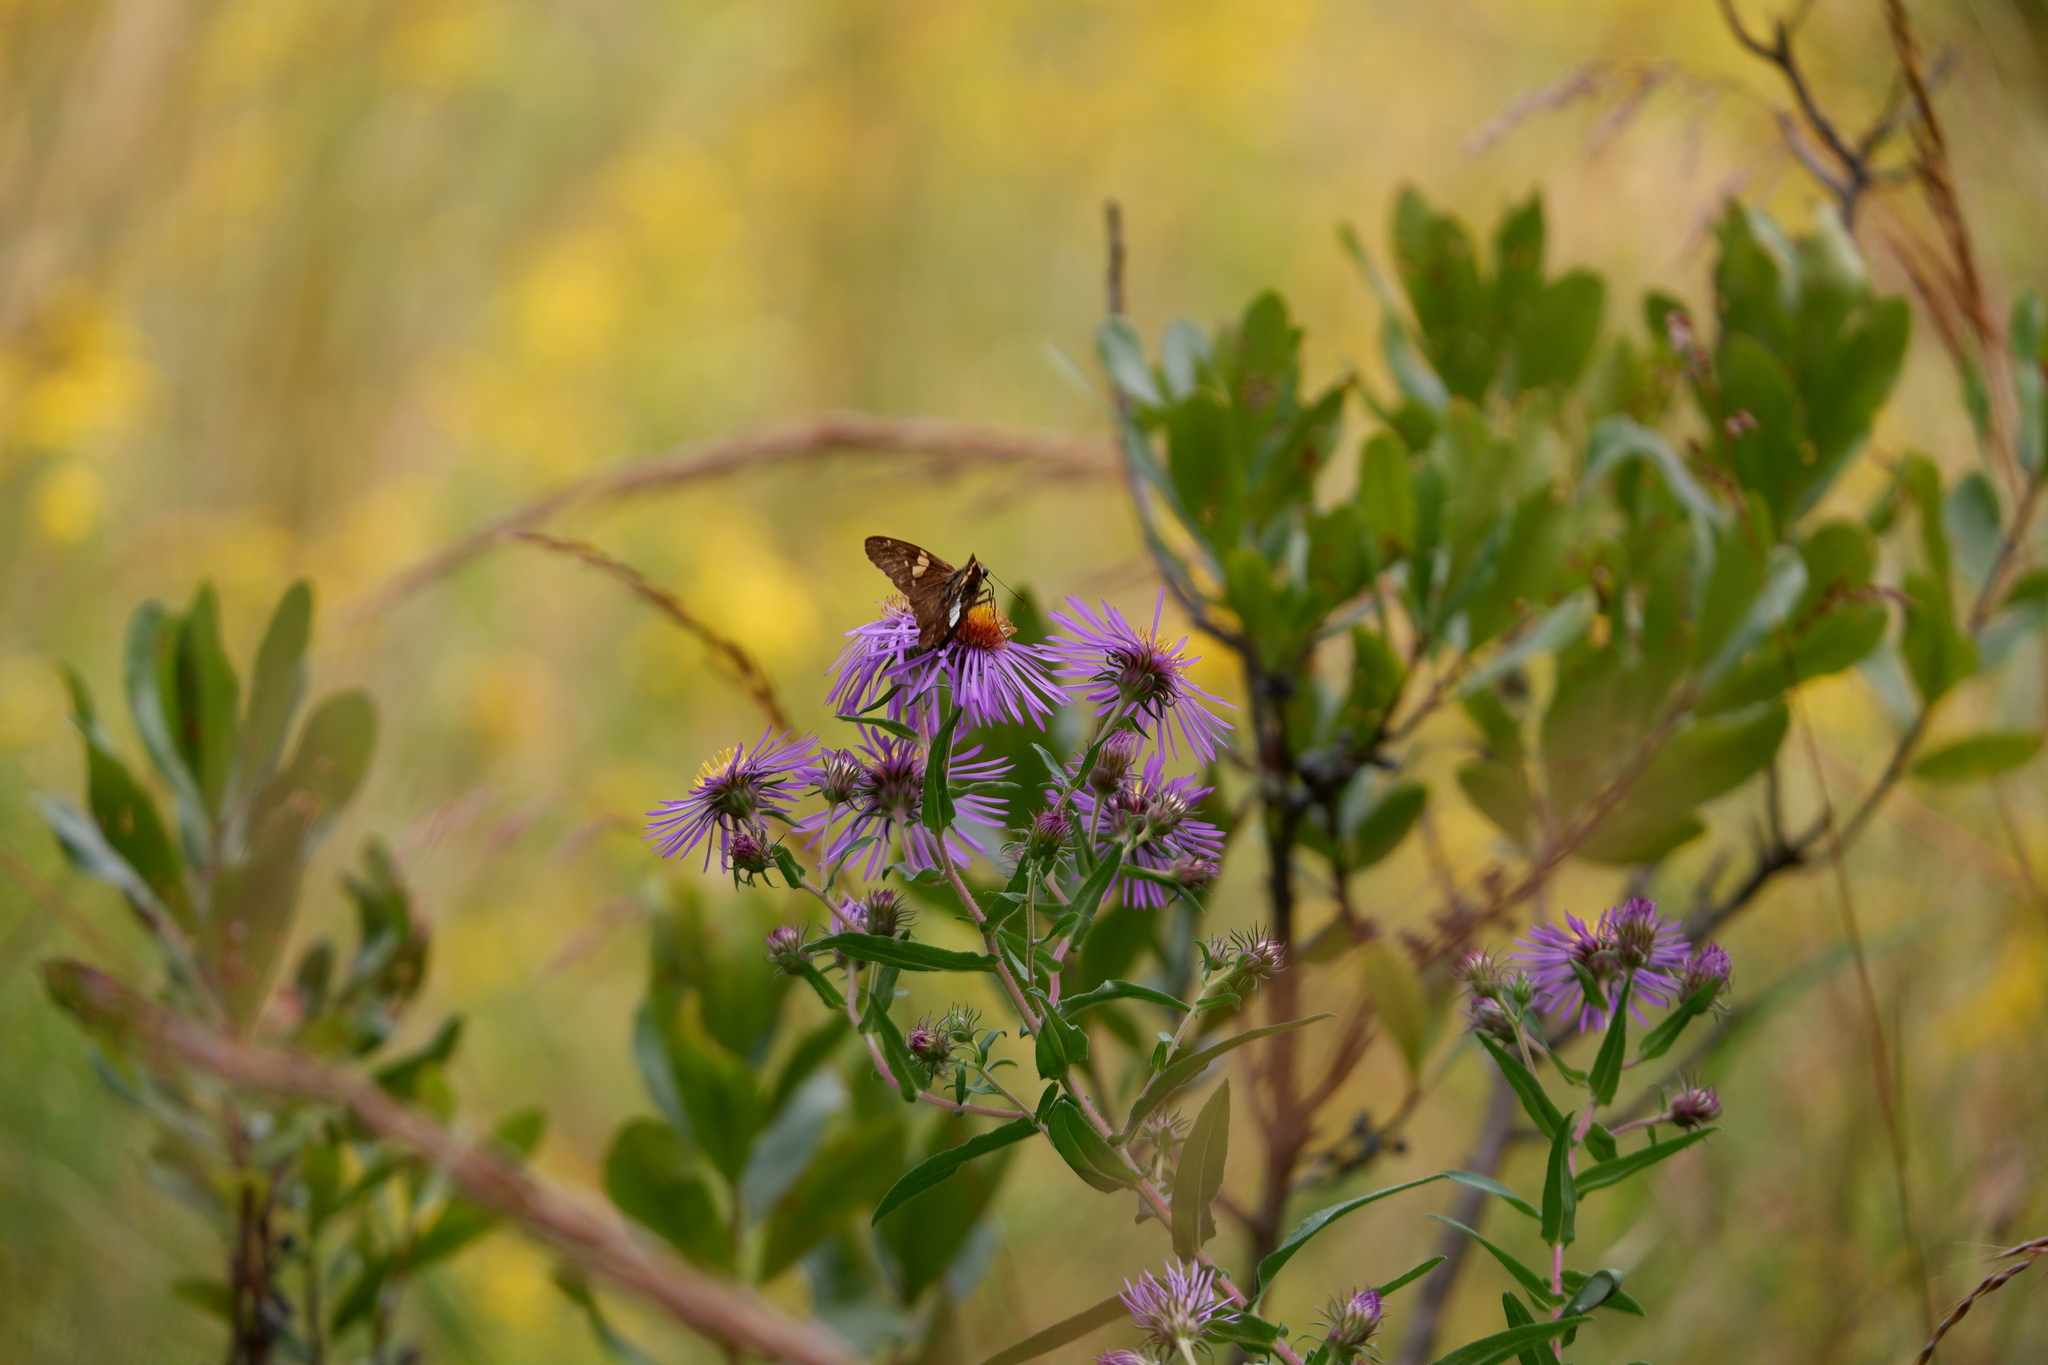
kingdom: Animalia
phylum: Arthropoda
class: Insecta
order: Lepidoptera
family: Hesperiidae
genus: Epargyreus
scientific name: Epargyreus clarus
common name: Silver-spotted skipper
